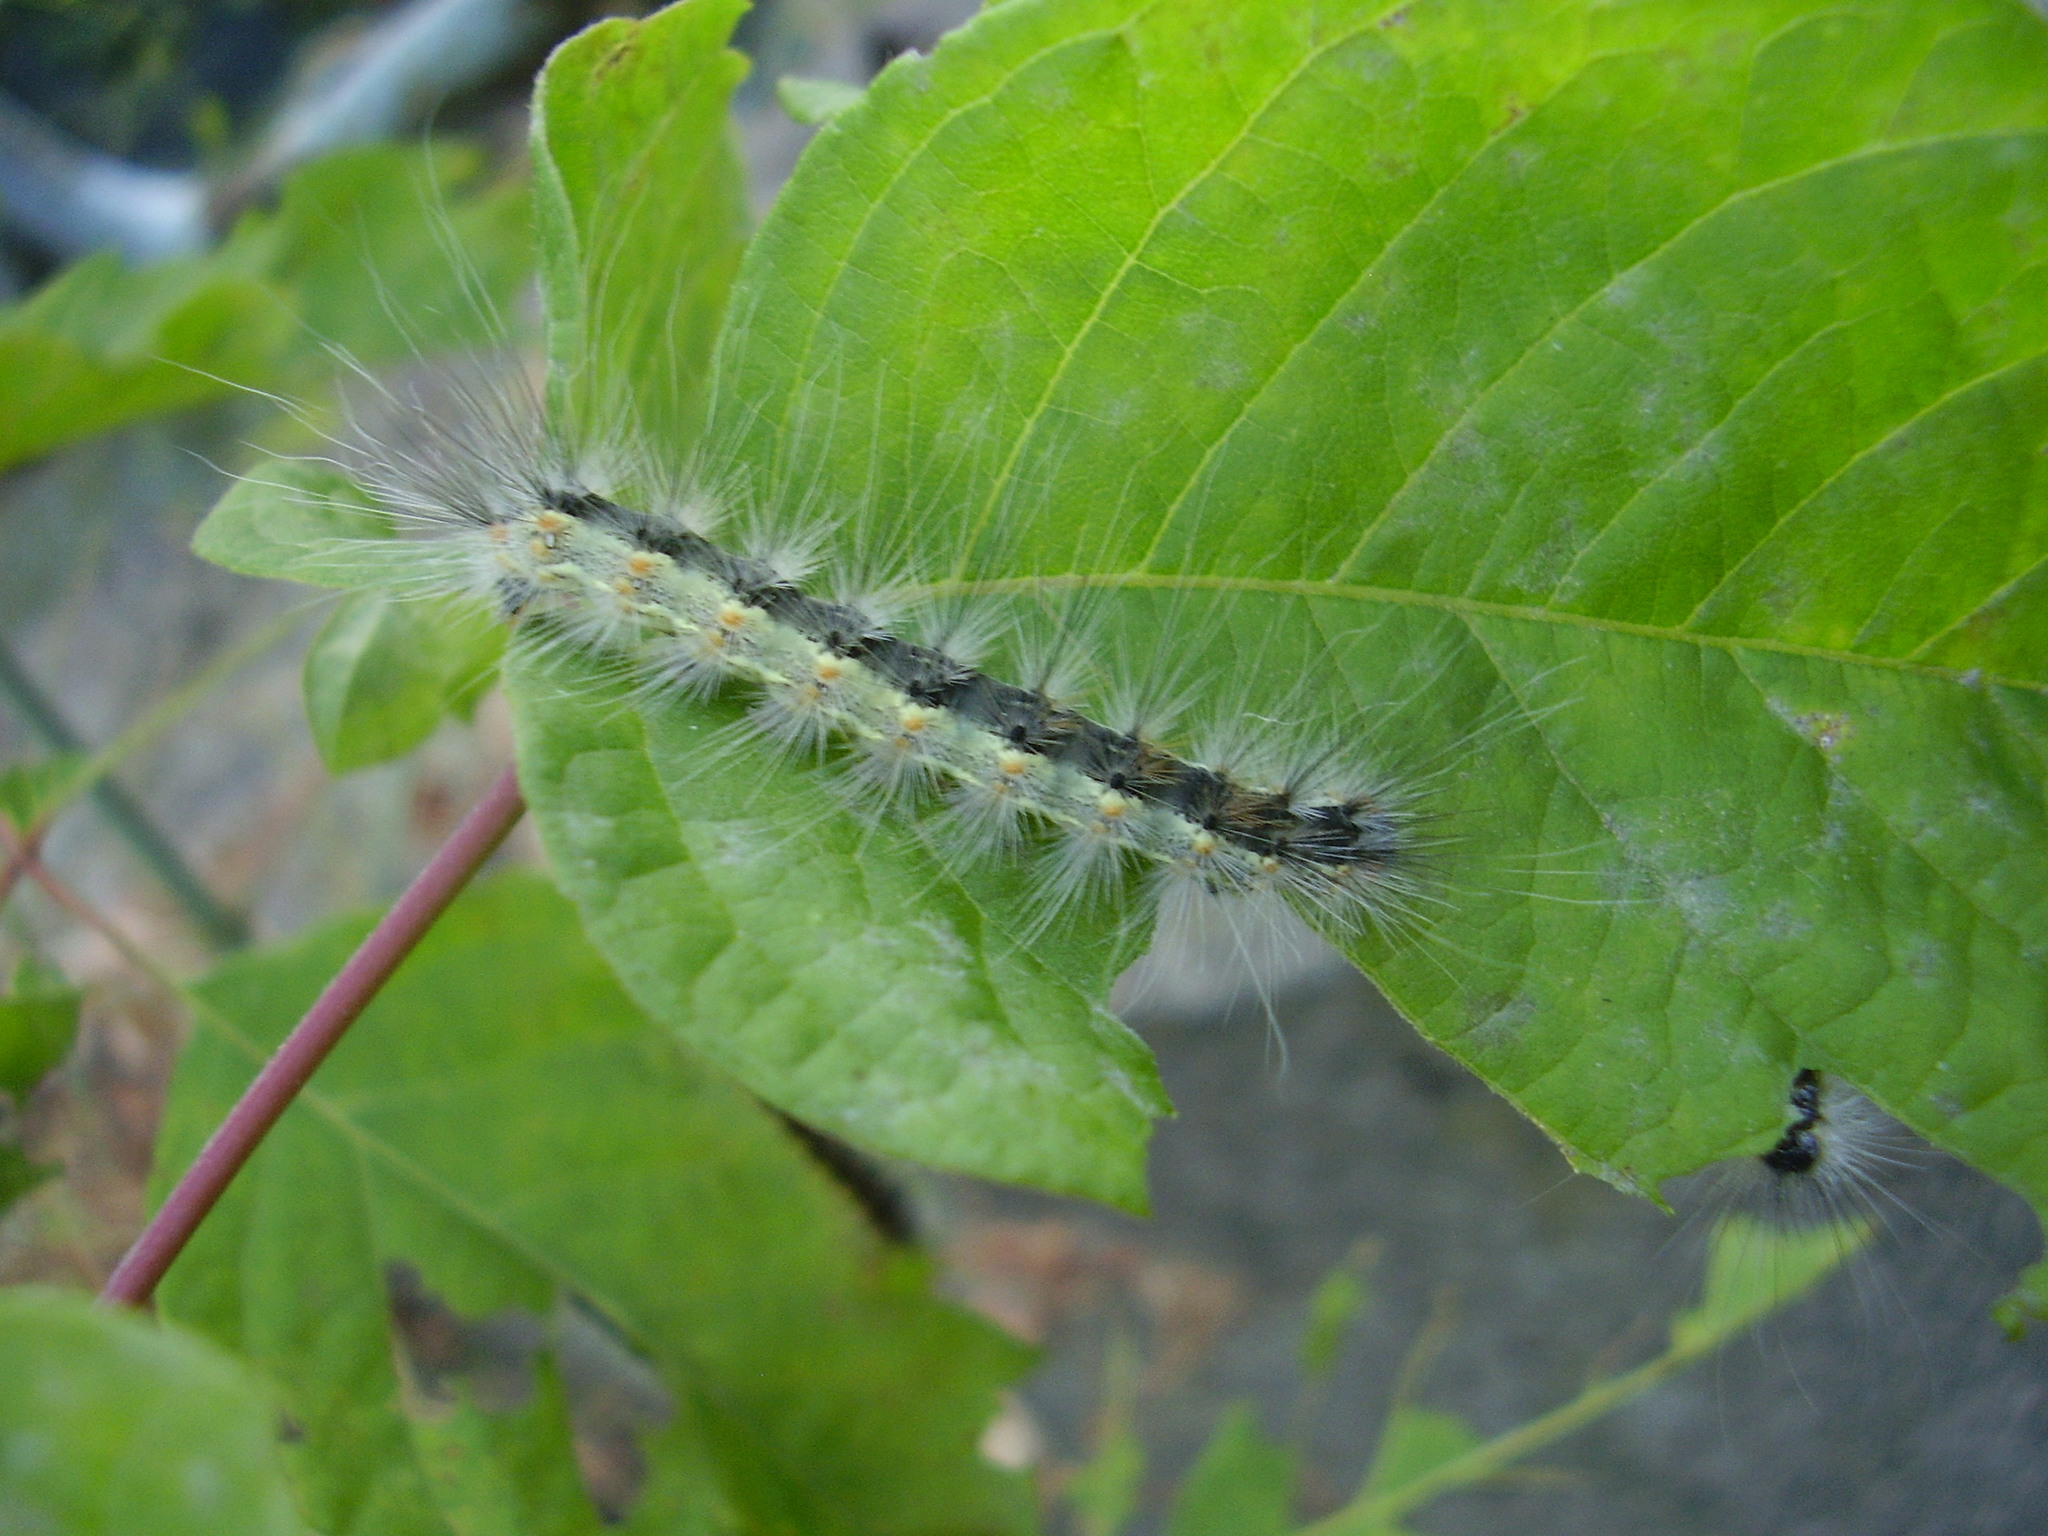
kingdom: Animalia
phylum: Arthropoda
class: Insecta
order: Lepidoptera
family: Erebidae
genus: Hyphantria
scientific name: Hyphantria cunea
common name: American white moth
